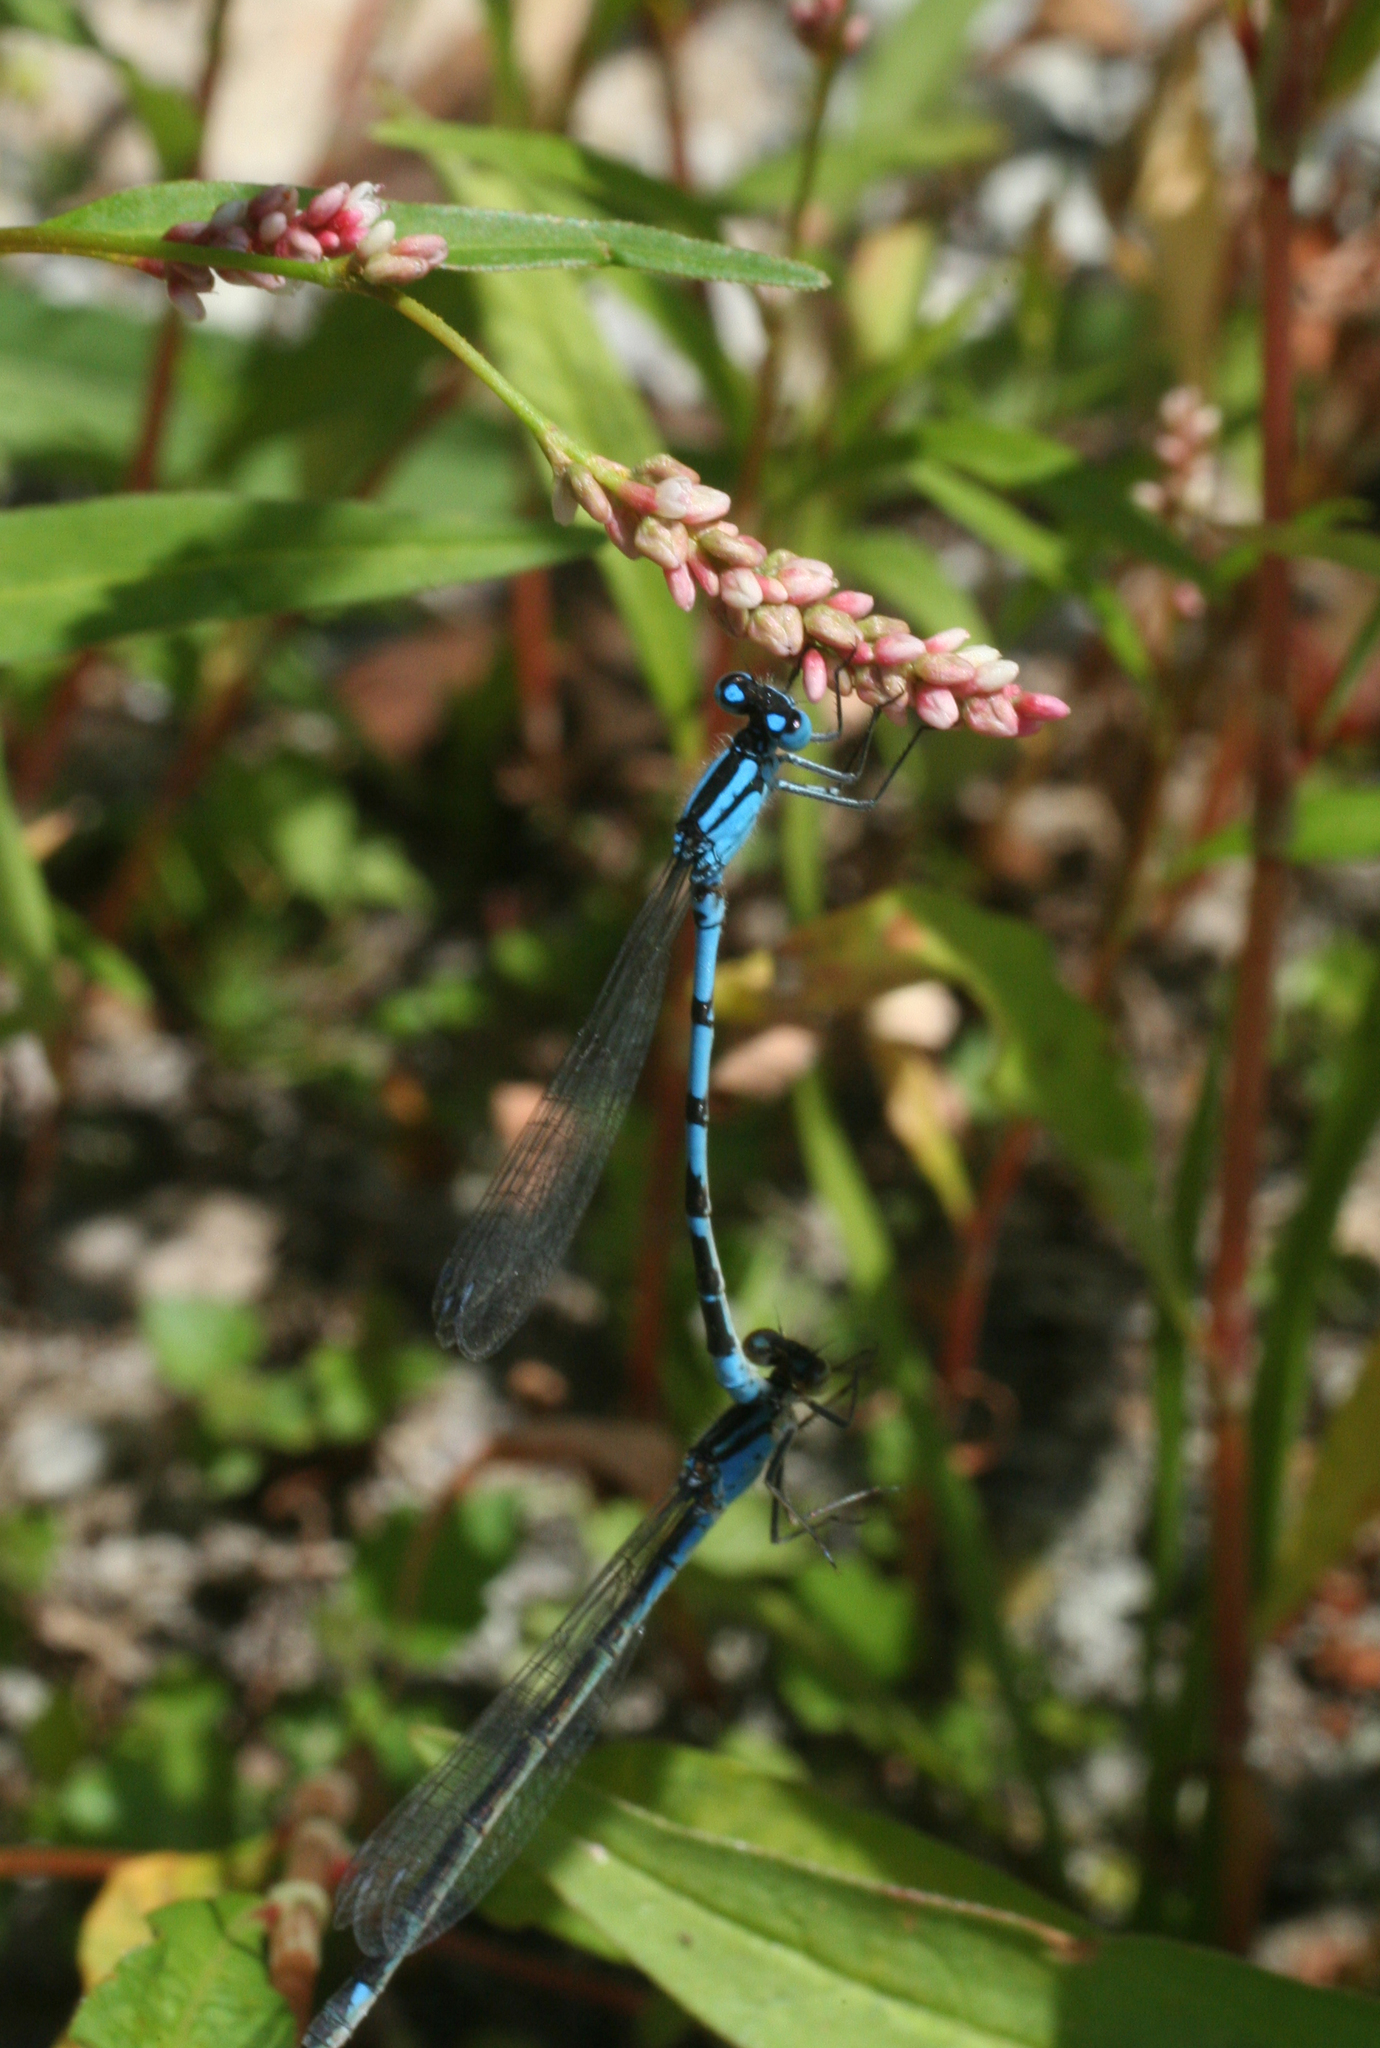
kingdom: Animalia
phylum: Arthropoda
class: Insecta
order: Odonata
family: Coenagrionidae
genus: Enallagma
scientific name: Enallagma cyathigerum
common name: Common blue damselfly
